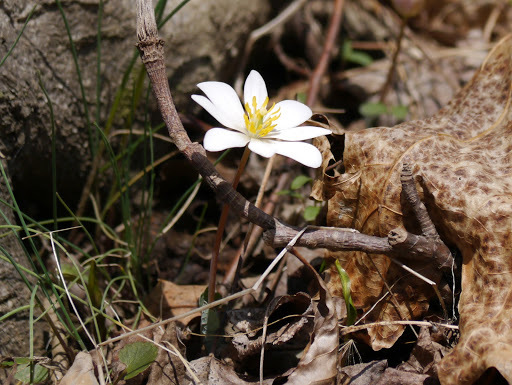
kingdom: Plantae
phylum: Tracheophyta
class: Magnoliopsida
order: Ranunculales
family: Papaveraceae
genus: Sanguinaria
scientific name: Sanguinaria canadensis
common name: Bloodroot
